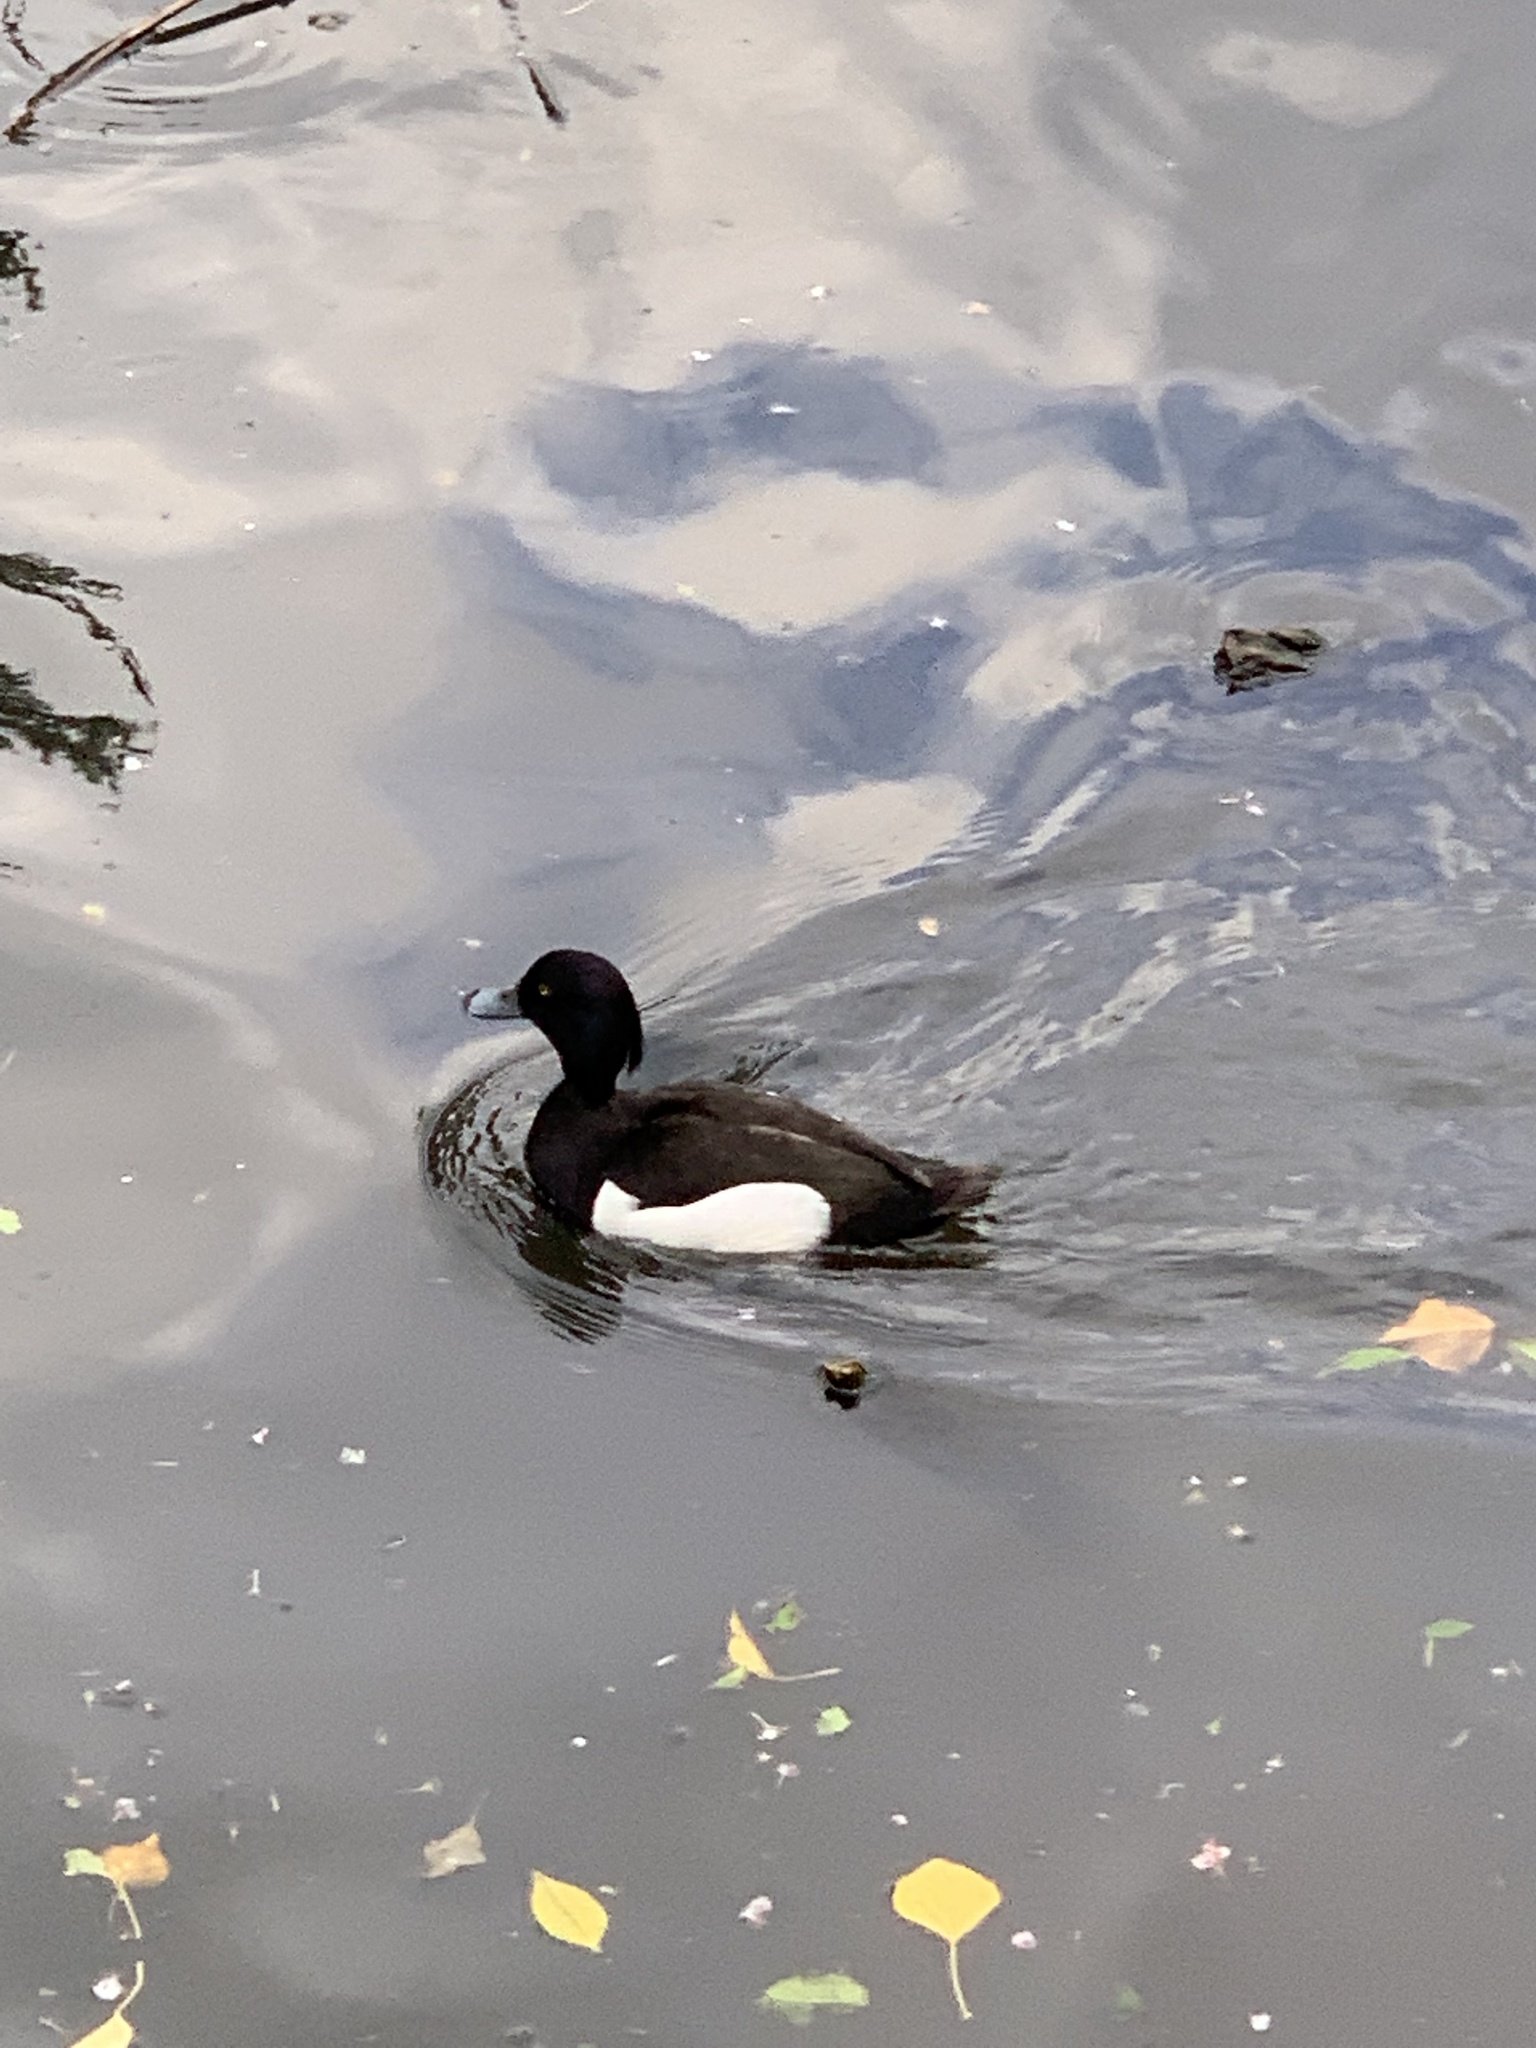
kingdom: Animalia
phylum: Chordata
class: Aves
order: Anseriformes
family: Anatidae
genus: Aythya
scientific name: Aythya fuligula
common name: Tufted duck
